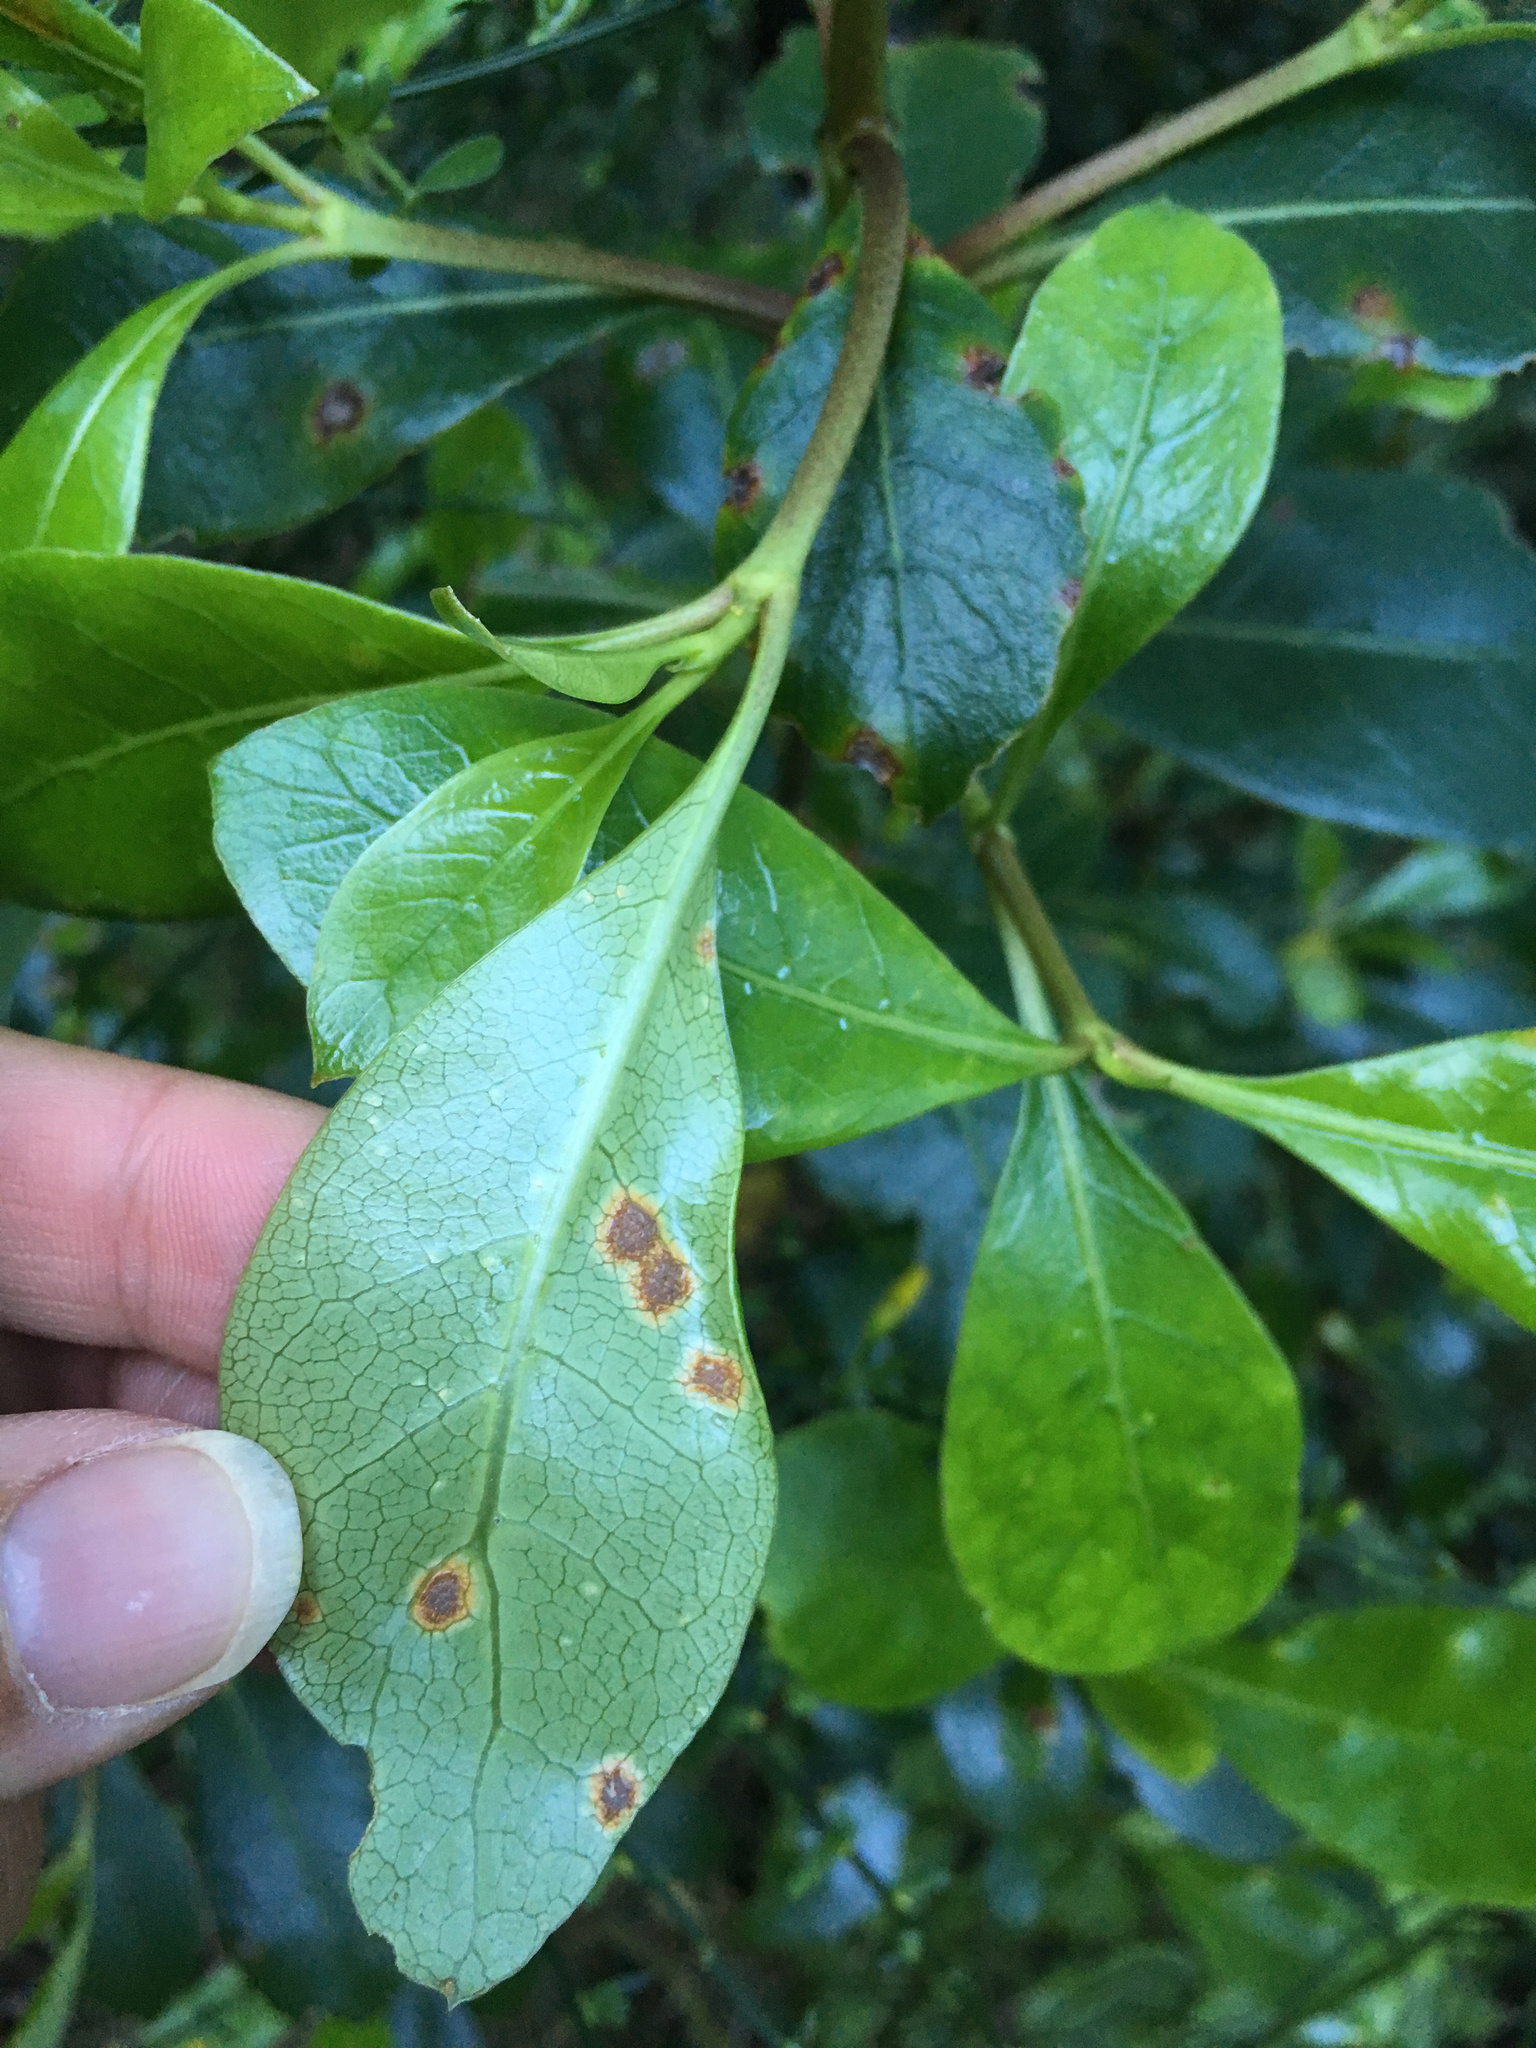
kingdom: Fungi
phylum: Basidiomycota
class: Pucciniomycetes
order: Pucciniales
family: Pucciniaceae
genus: Puccinia
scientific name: Puccinia coprosmae
